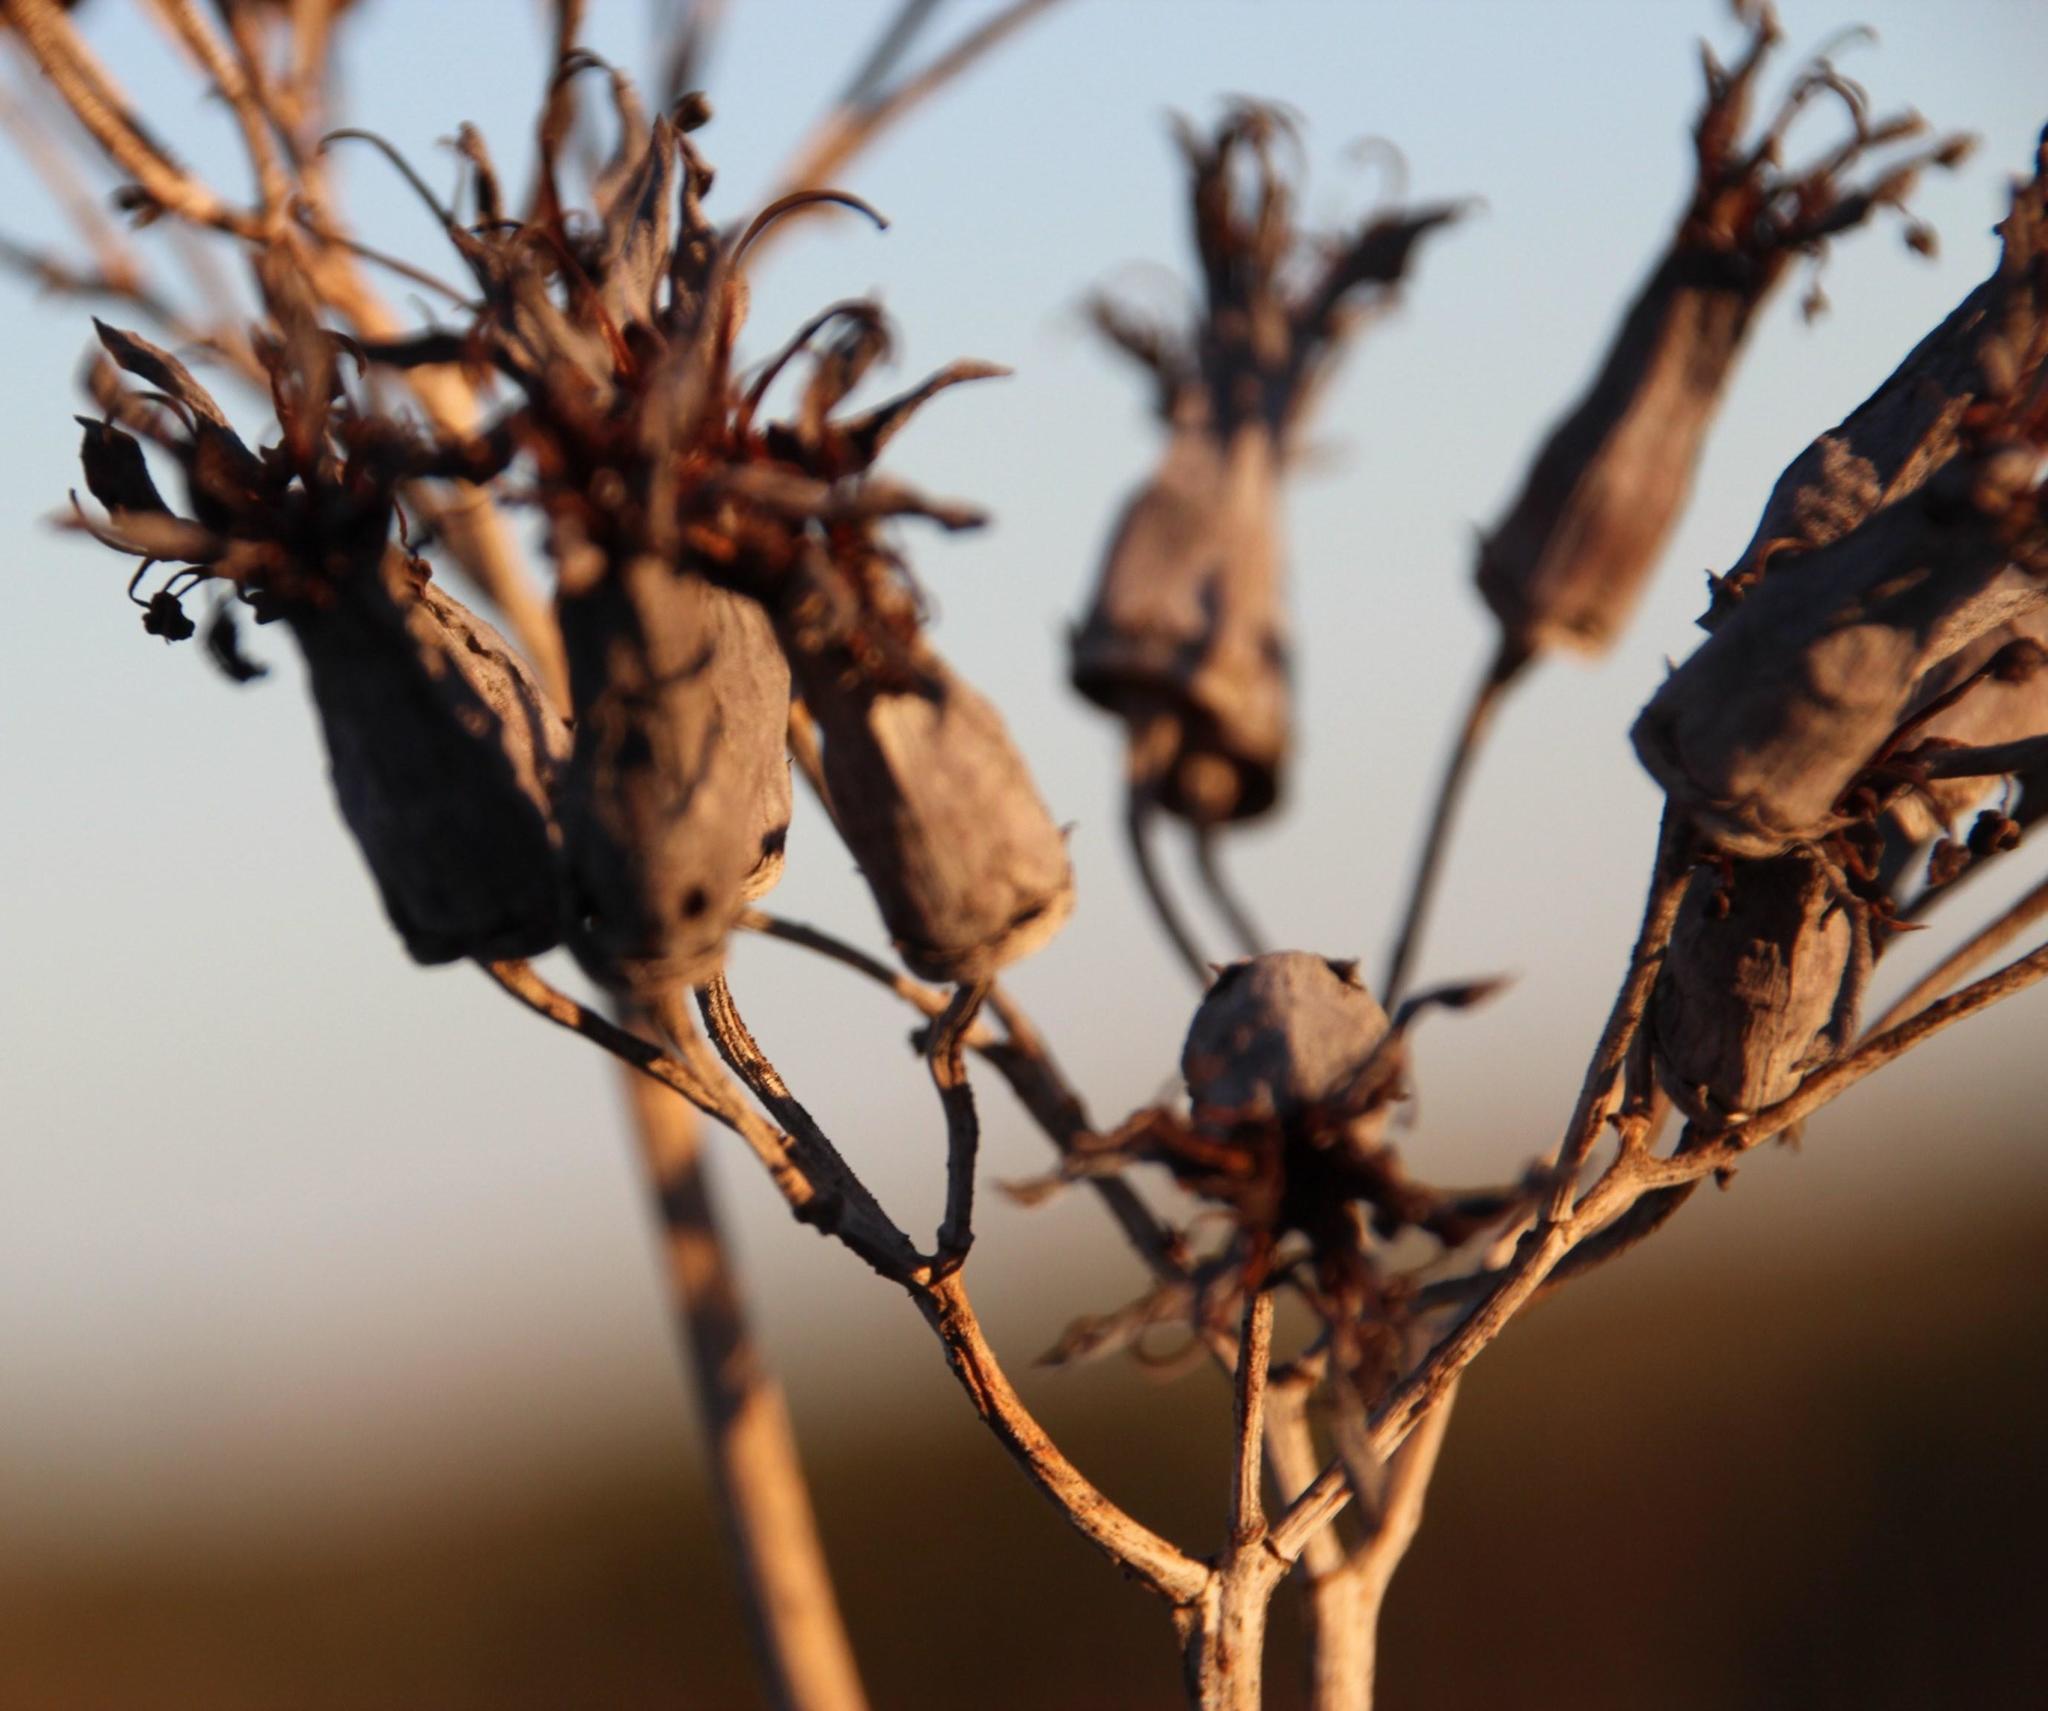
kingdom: Plantae
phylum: Tracheophyta
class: Magnoliopsida
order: Saxifragales
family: Crassulaceae
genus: Cotyledon
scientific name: Cotyledon orbiculata
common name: Pig's ear
